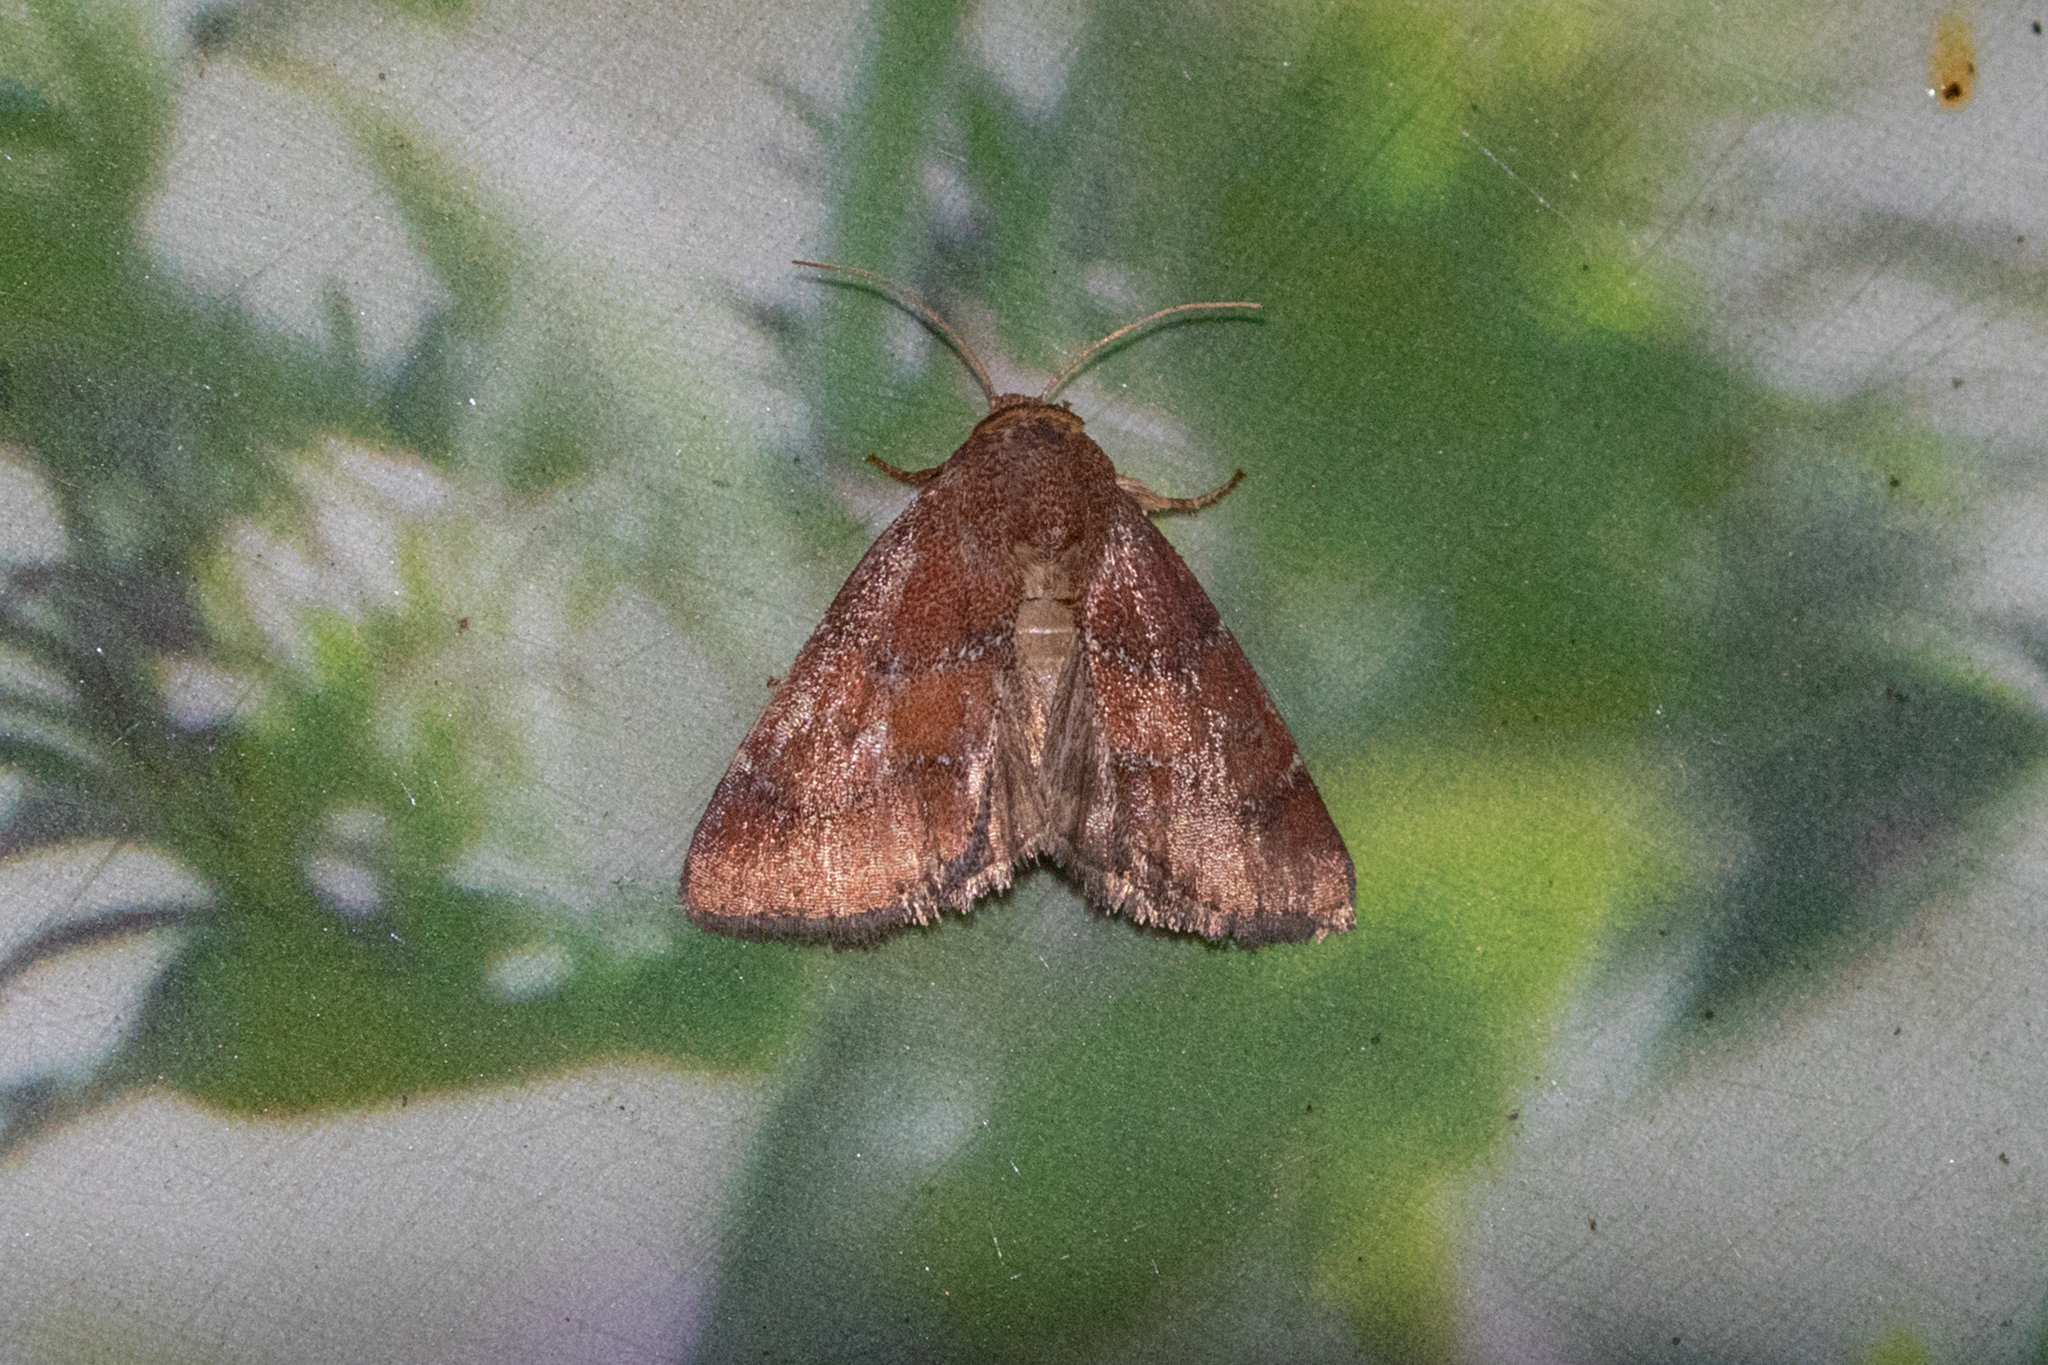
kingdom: Animalia
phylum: Arthropoda
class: Insecta
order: Lepidoptera
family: Noctuidae
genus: Schinia
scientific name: Schinia saturata
